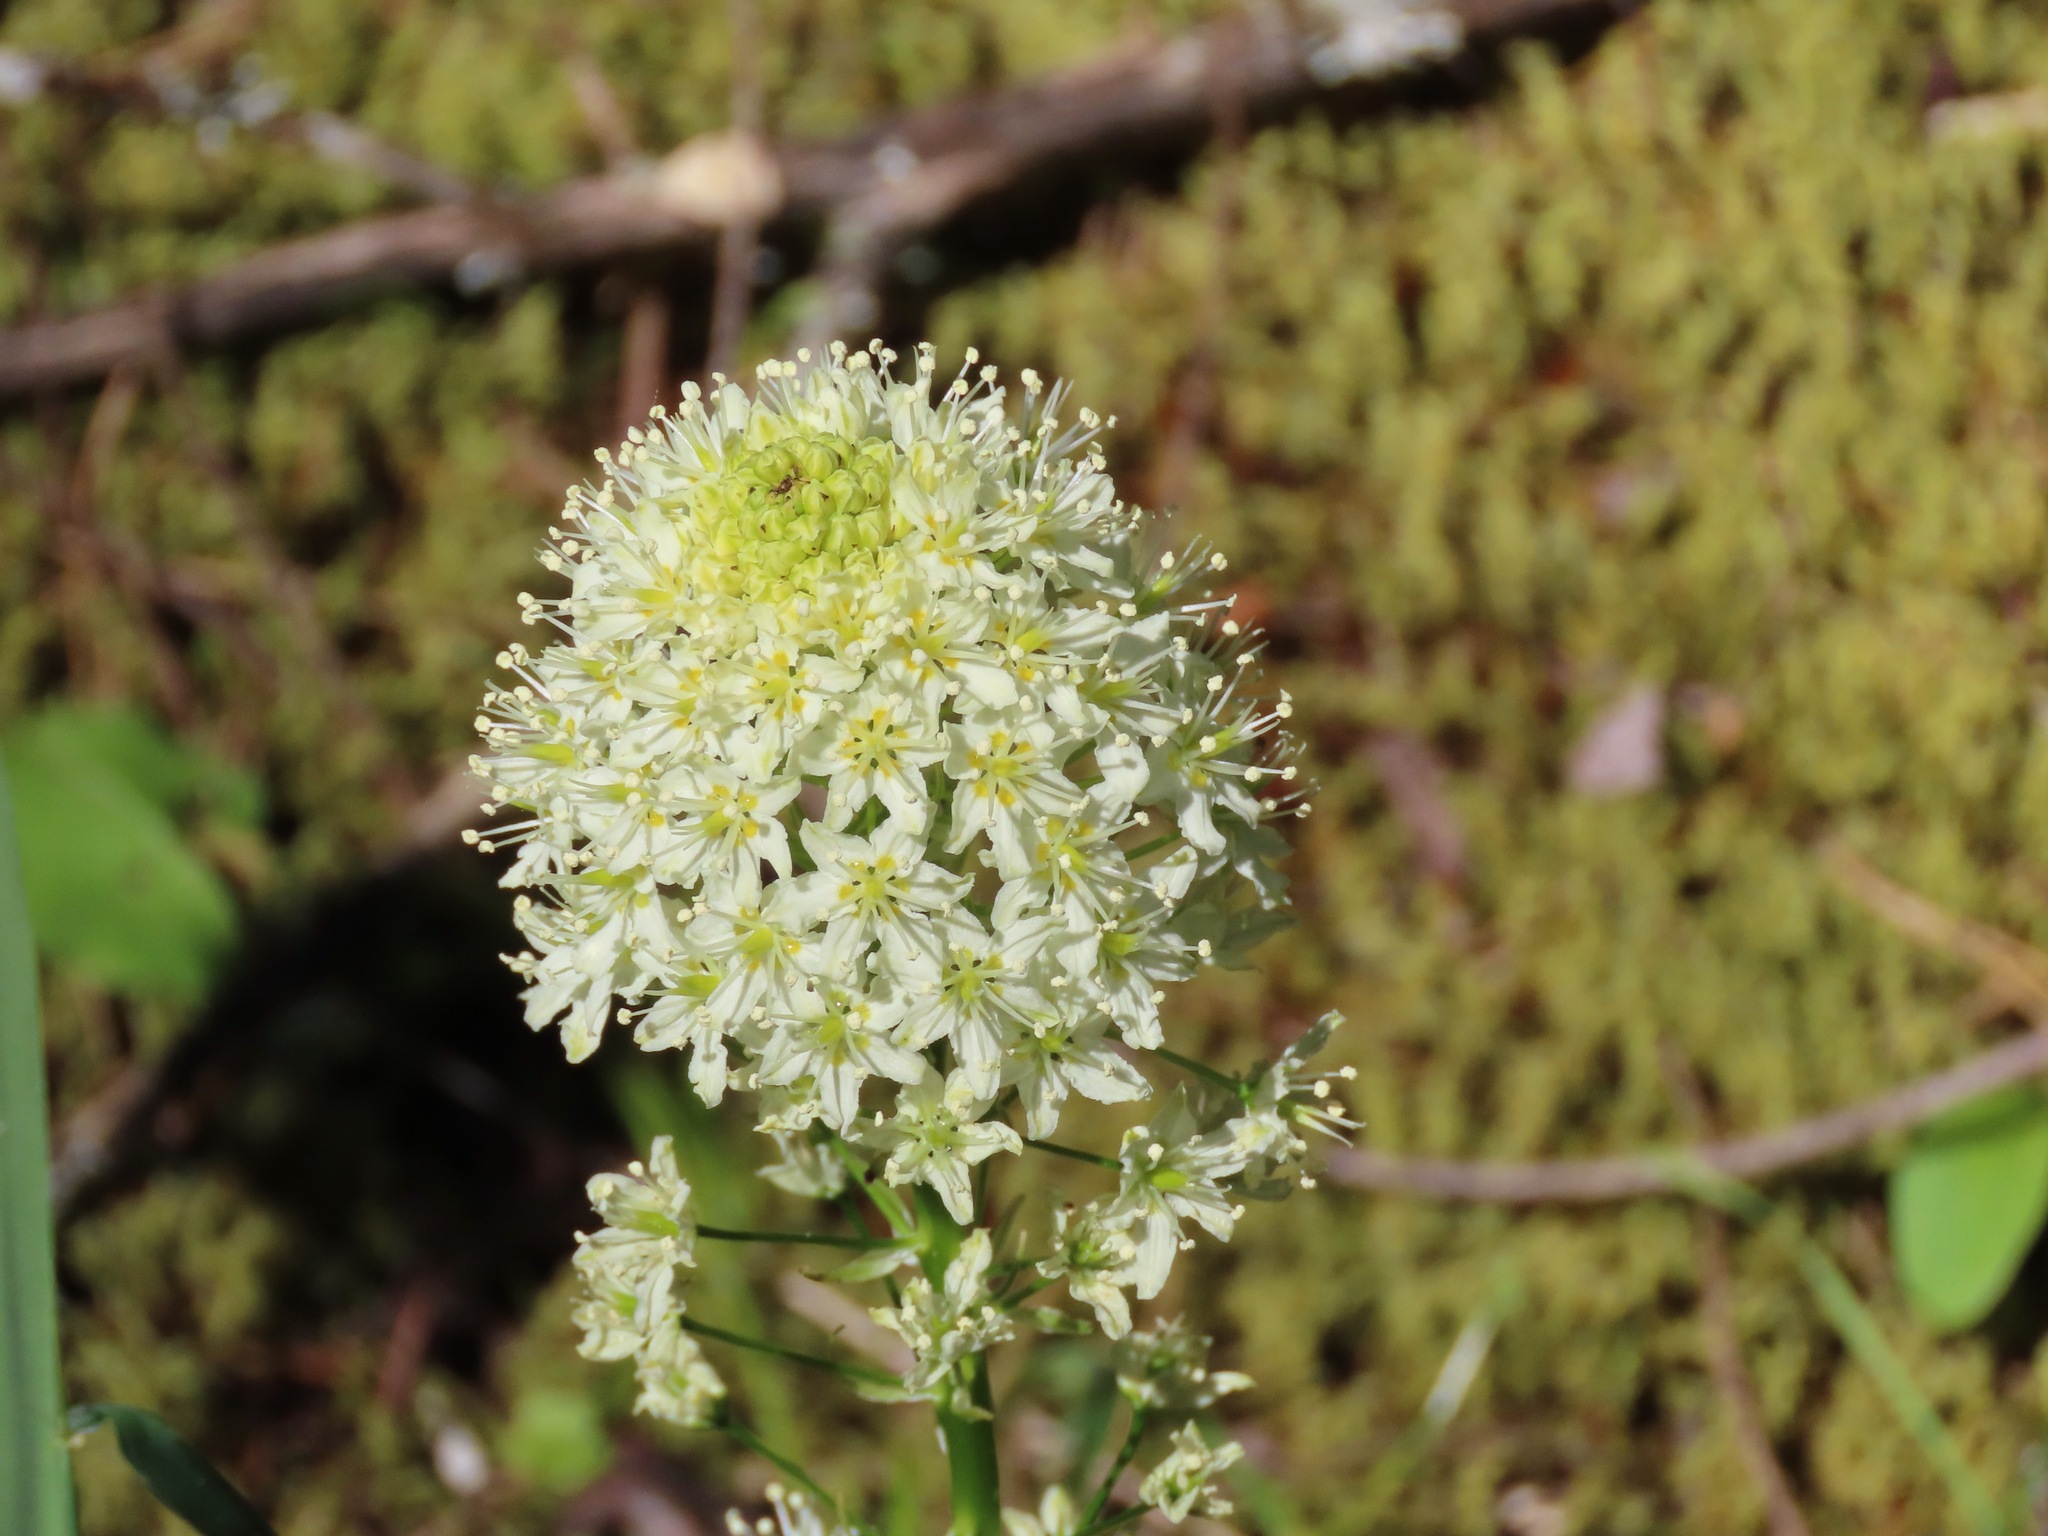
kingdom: Plantae
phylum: Tracheophyta
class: Liliopsida
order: Liliales
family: Melanthiaceae
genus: Toxicoscordion
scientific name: Toxicoscordion venenosum
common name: Meadow death camas
